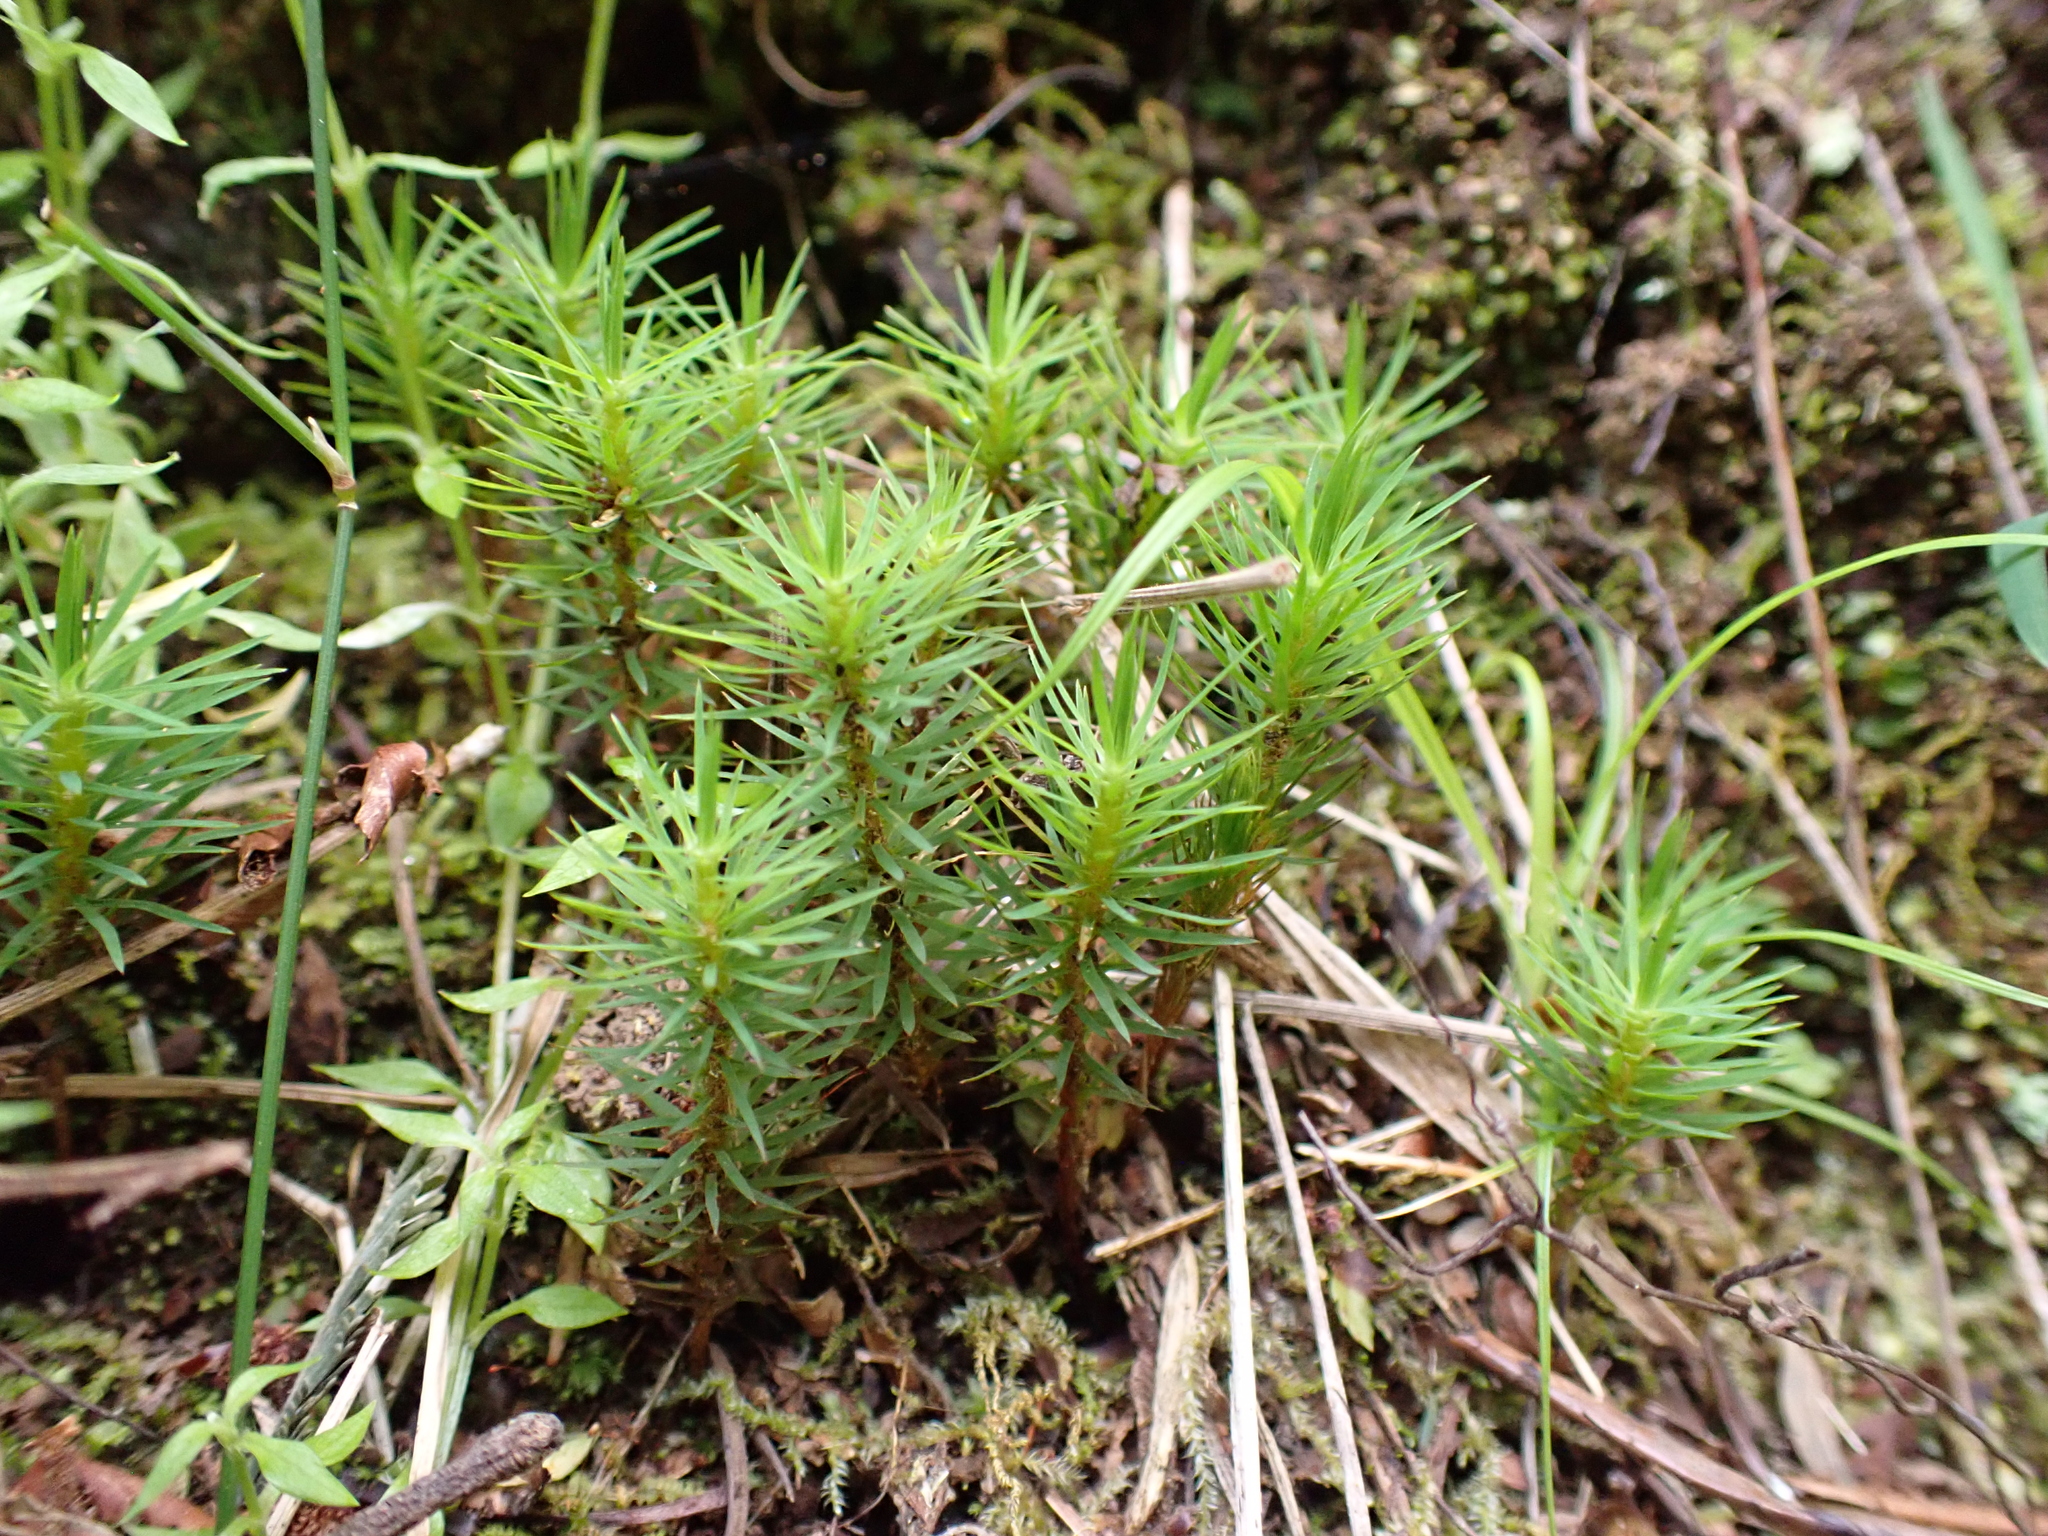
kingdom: Plantae
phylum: Bryophyta
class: Polytrichopsida
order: Polytrichales
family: Polytrichaceae
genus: Dawsonia
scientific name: Dawsonia polytrichoides
